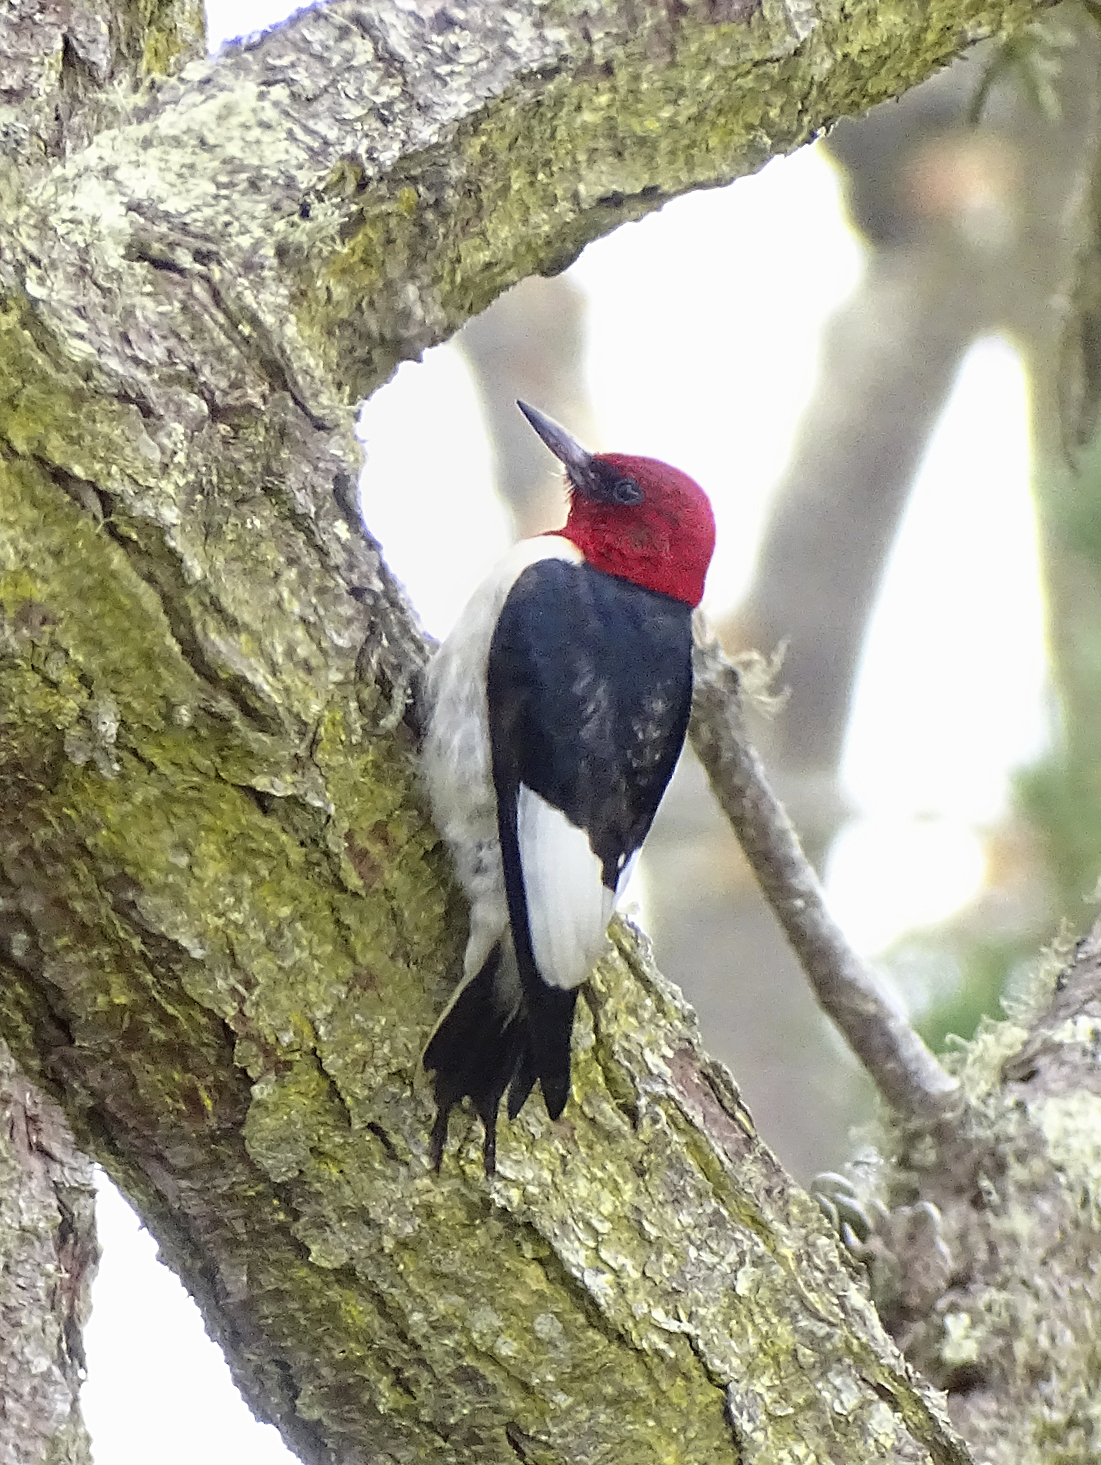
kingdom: Animalia
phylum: Chordata
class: Aves
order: Piciformes
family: Picidae
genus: Melanerpes
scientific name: Melanerpes erythrocephalus
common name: Red-headed woodpecker
